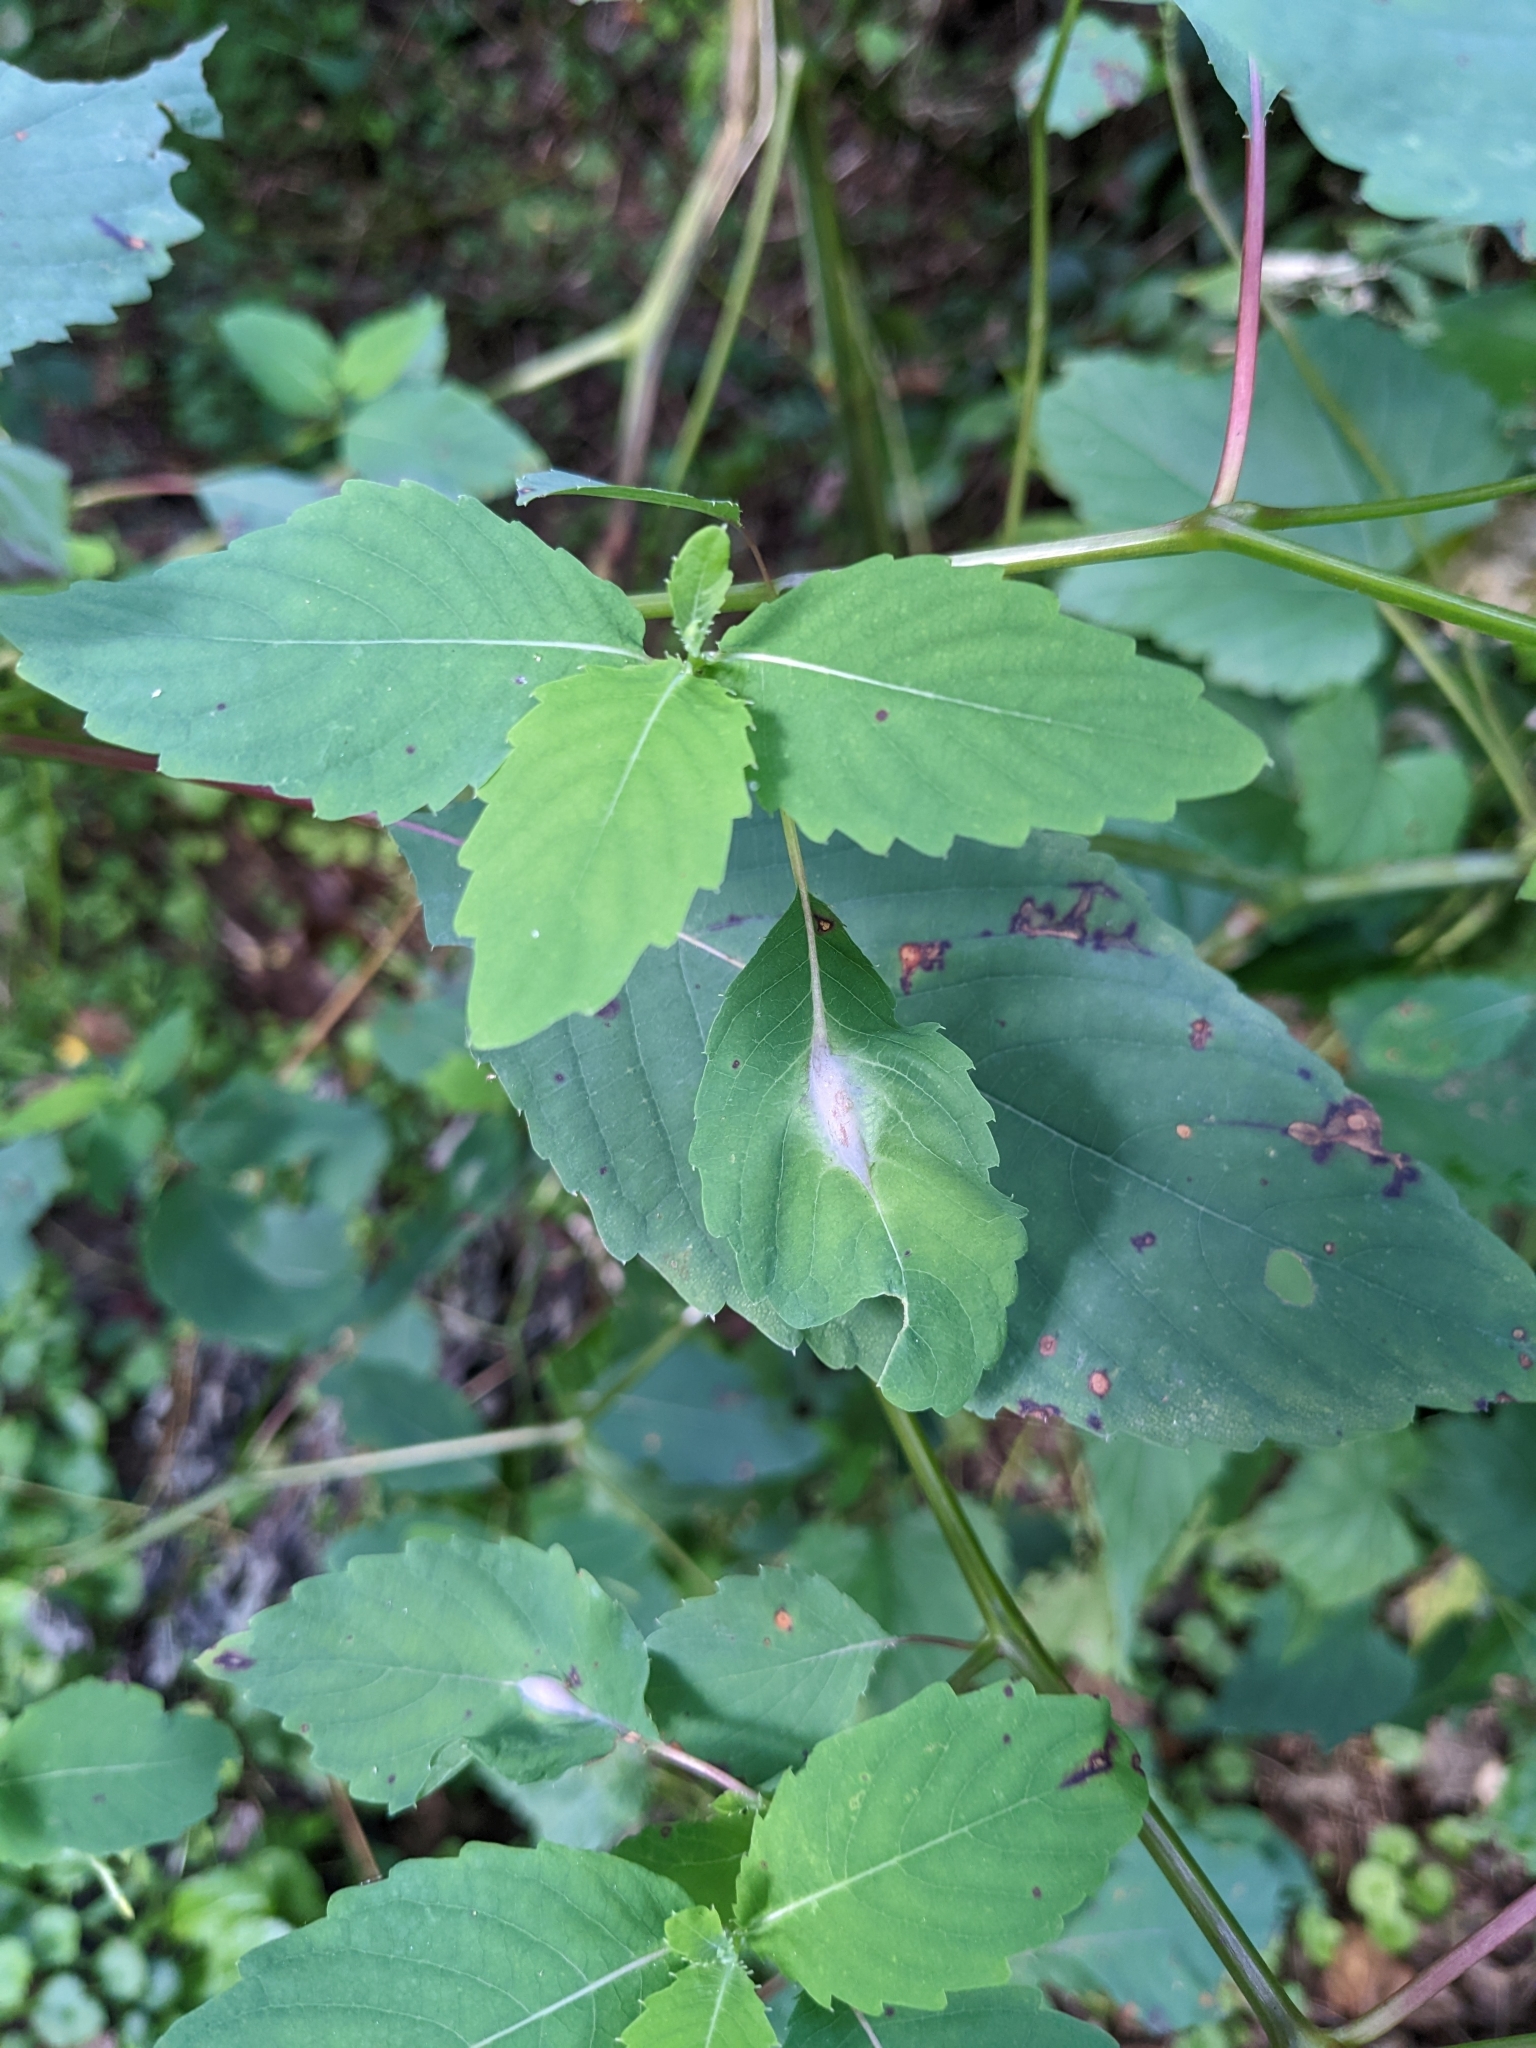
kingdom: Animalia
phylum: Arthropoda
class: Insecta
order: Diptera
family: Cecidomyiidae
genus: Neolasioptera
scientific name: Neolasioptera impatientifolia
